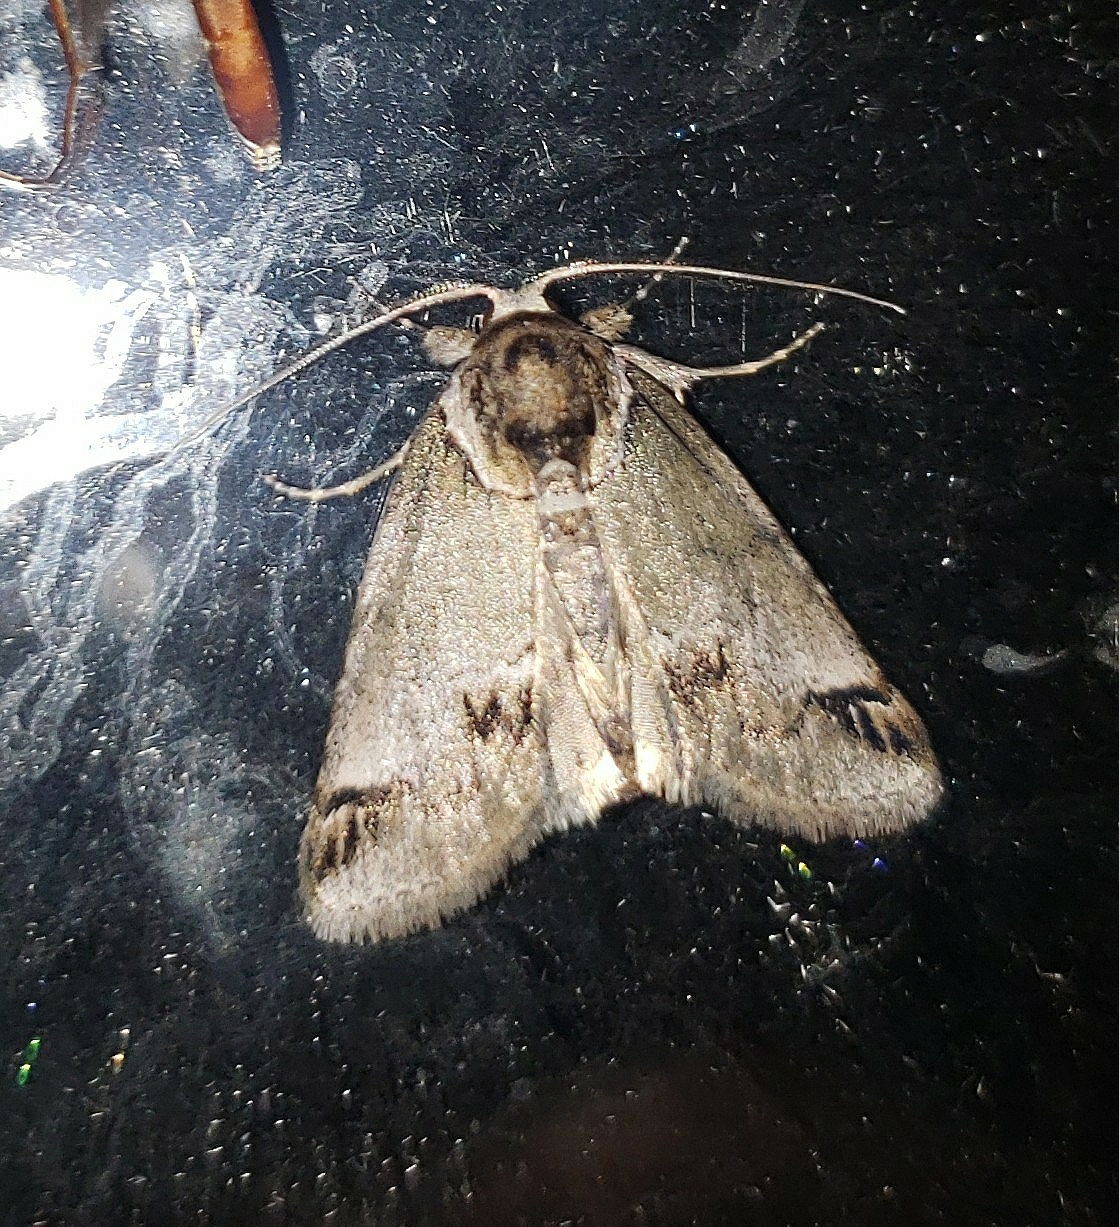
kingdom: Animalia
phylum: Arthropoda
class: Insecta
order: Lepidoptera
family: Nolidae
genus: Baileya
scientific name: Baileya australis
